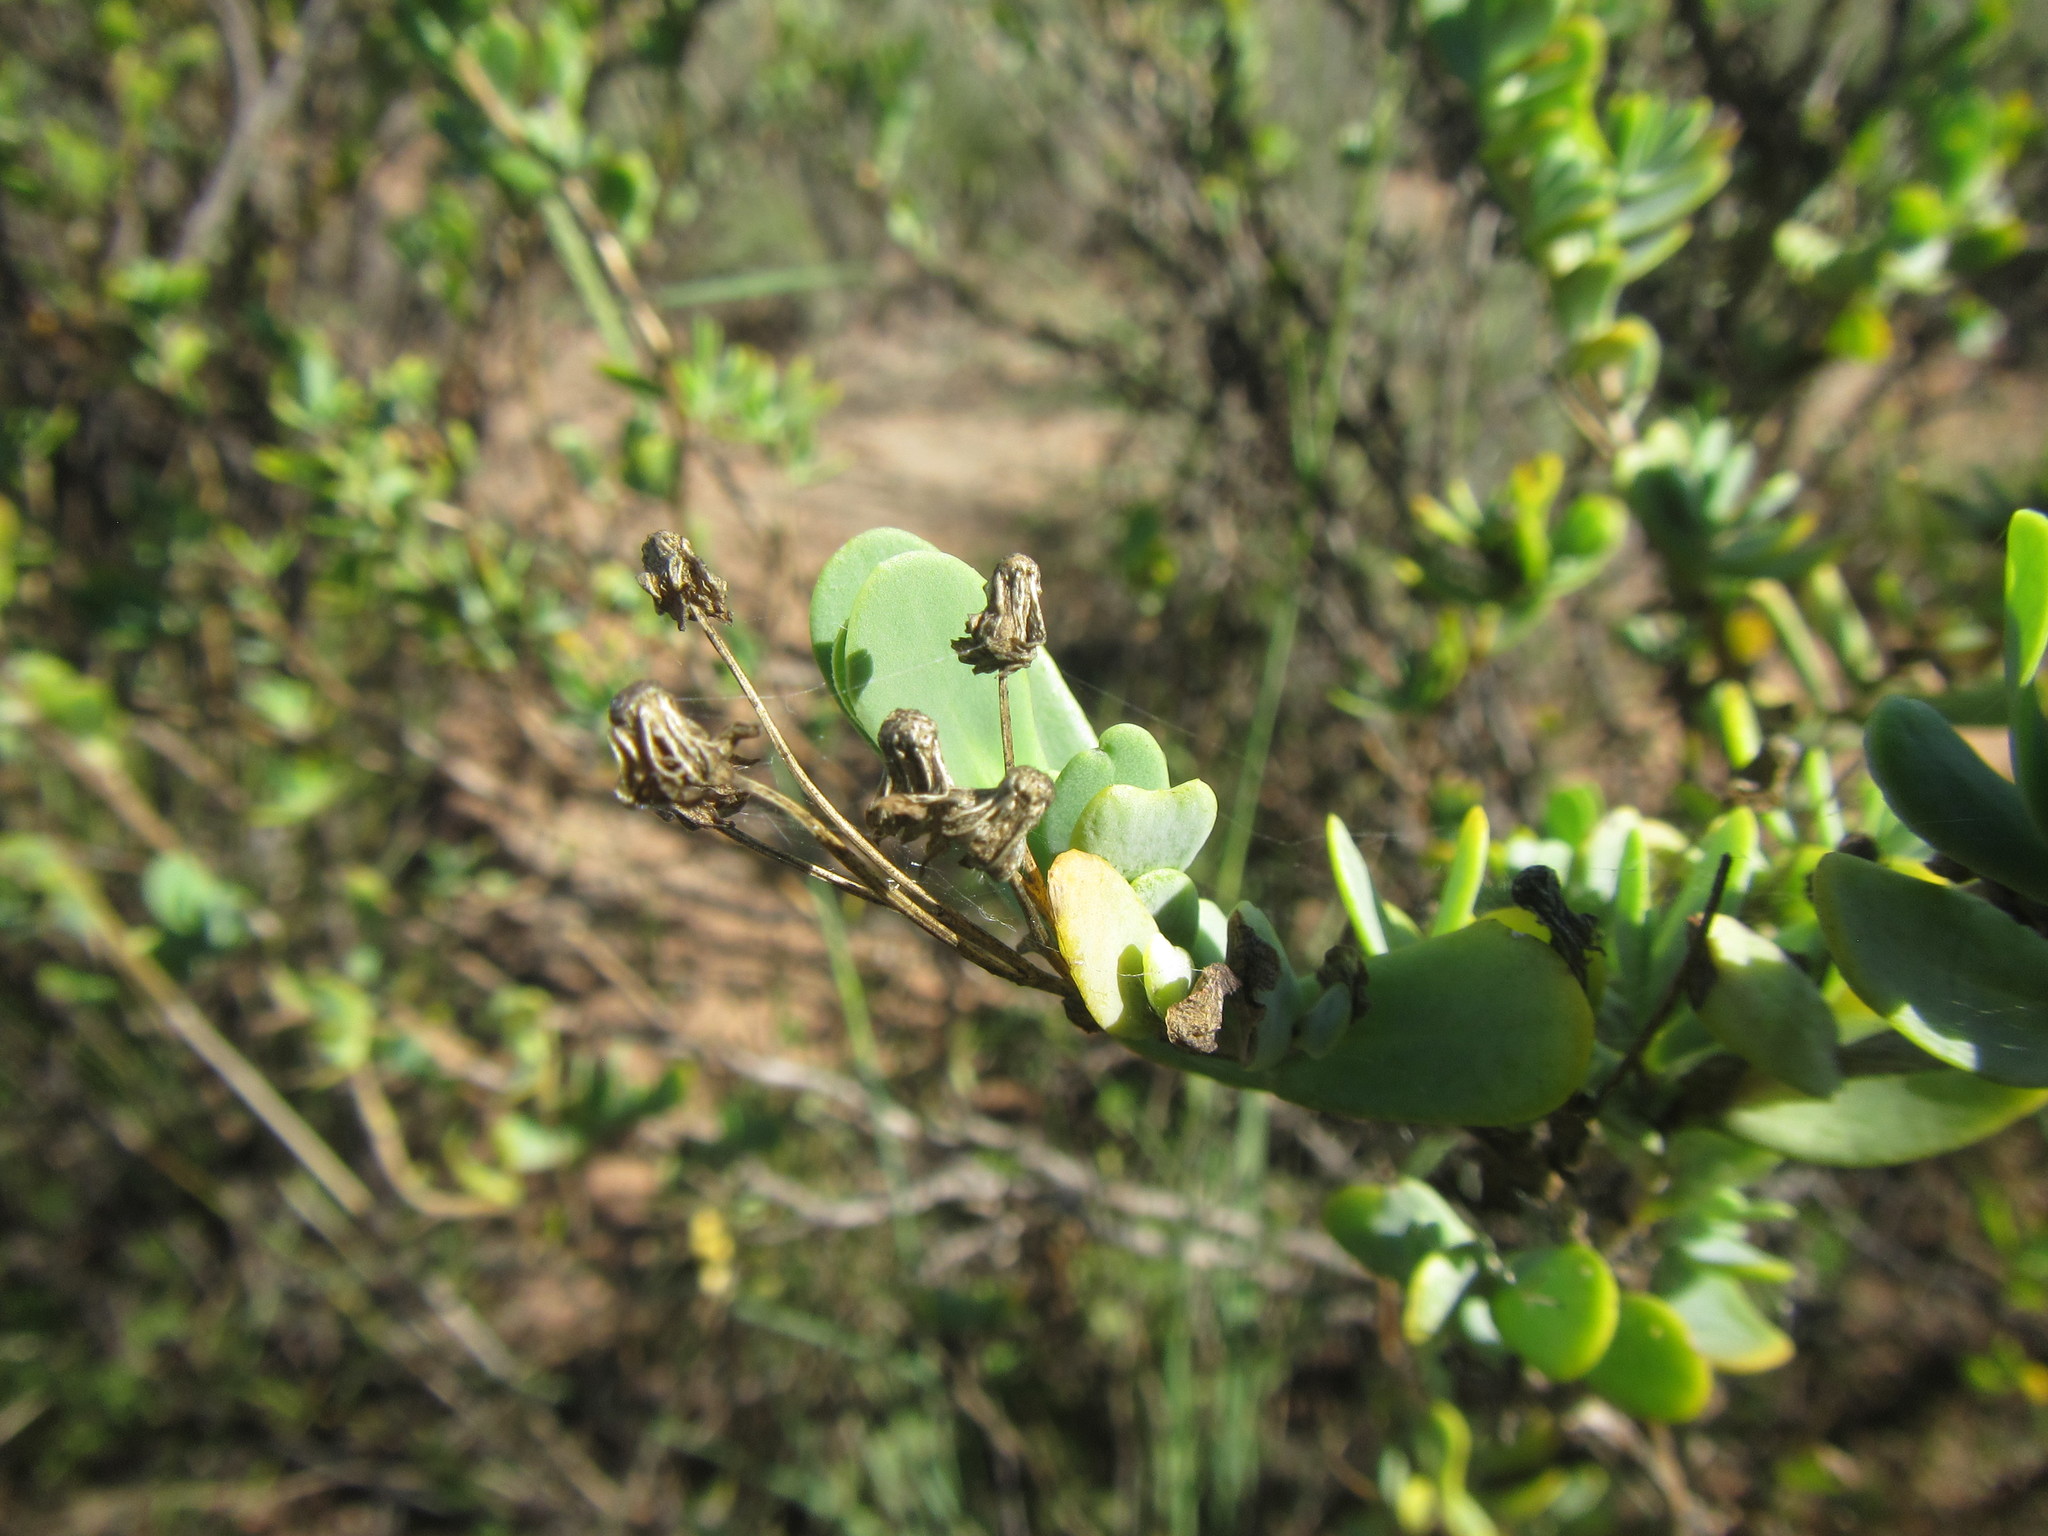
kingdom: Plantae
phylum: Tracheophyta
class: Magnoliopsida
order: Asterales
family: Asteraceae
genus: Hertia
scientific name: Hertia kraussii
